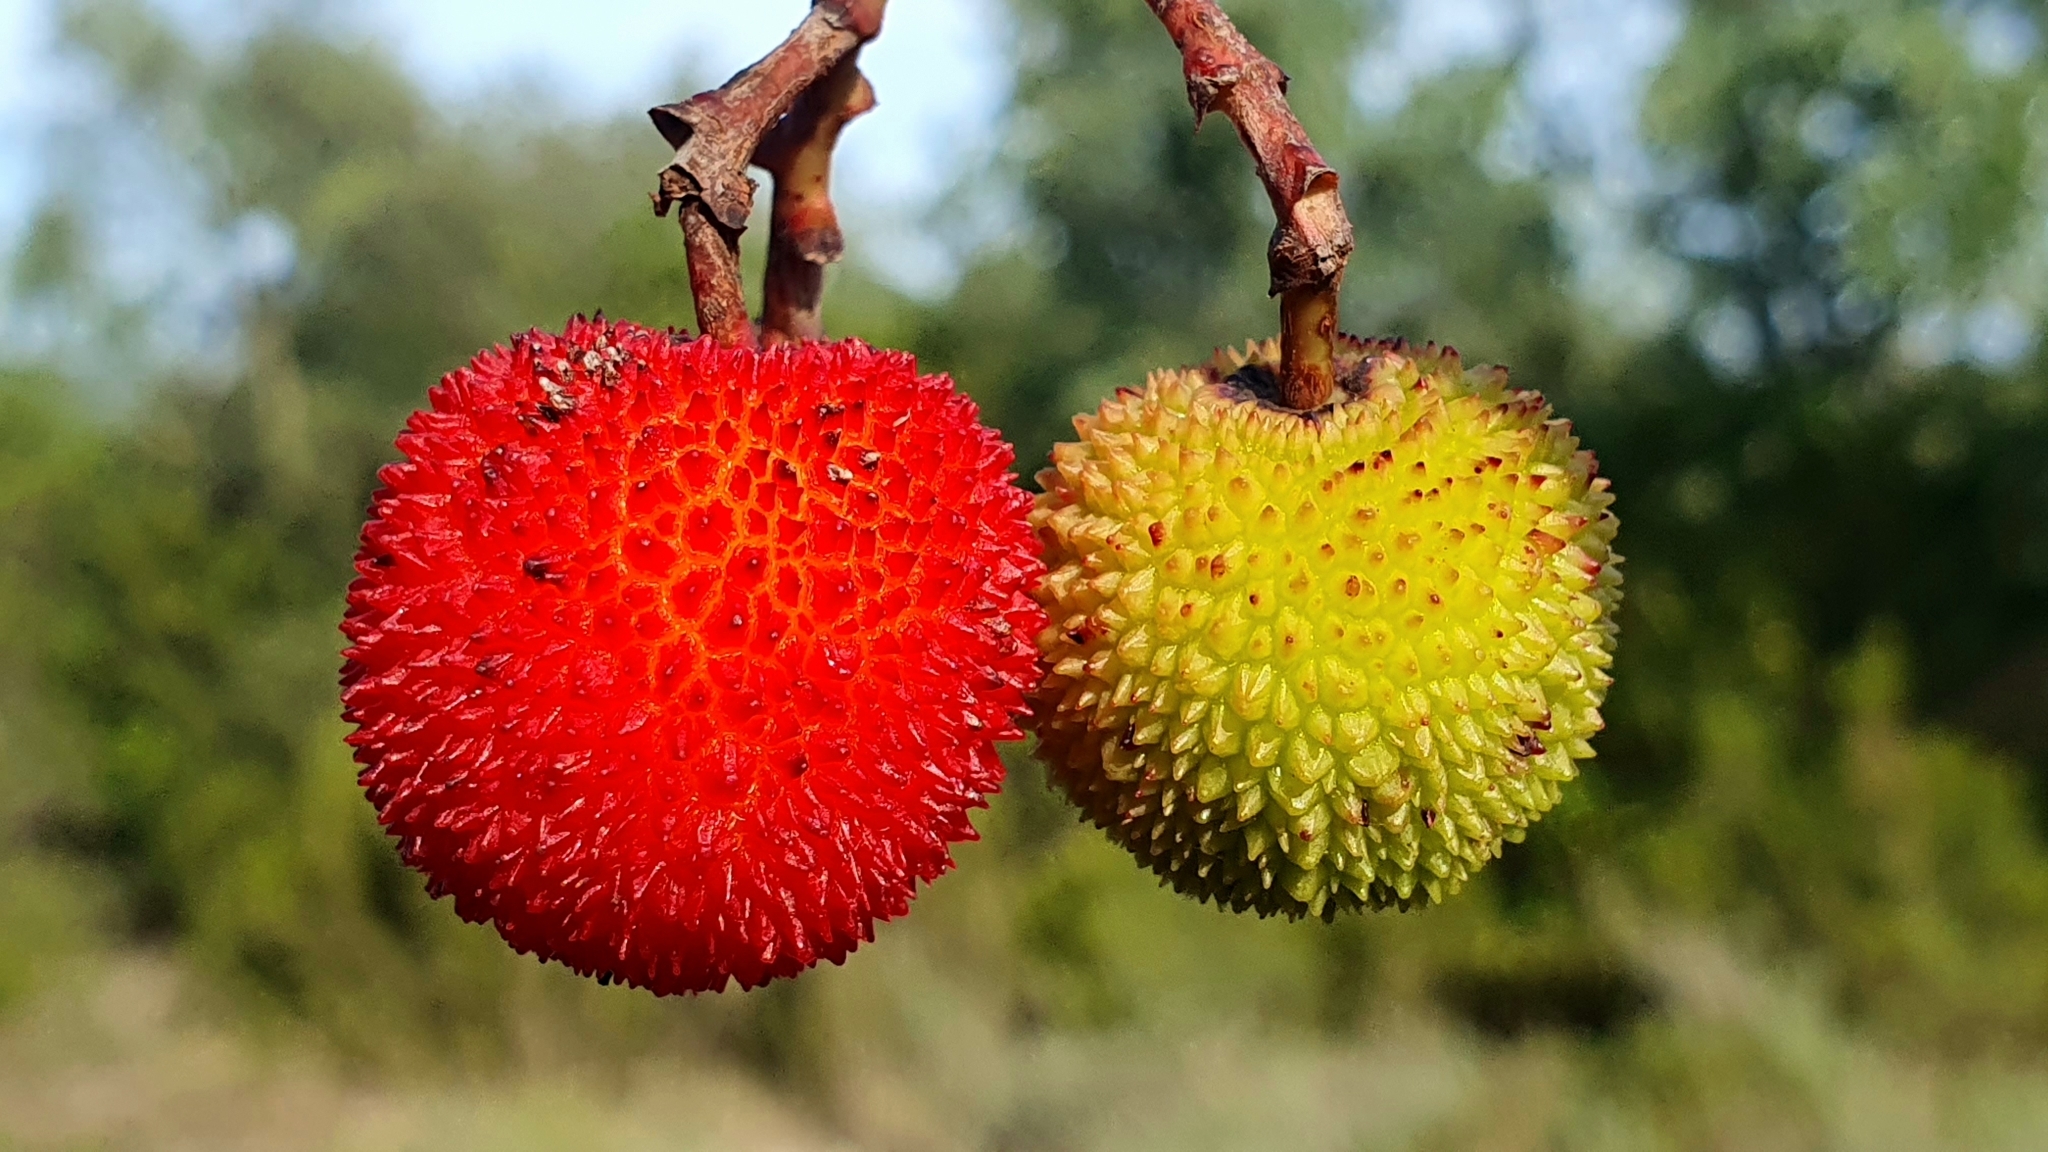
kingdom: Plantae
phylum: Tracheophyta
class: Magnoliopsida
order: Ericales
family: Ericaceae
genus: Arbutus
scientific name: Arbutus unedo
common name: Strawberry-tree
